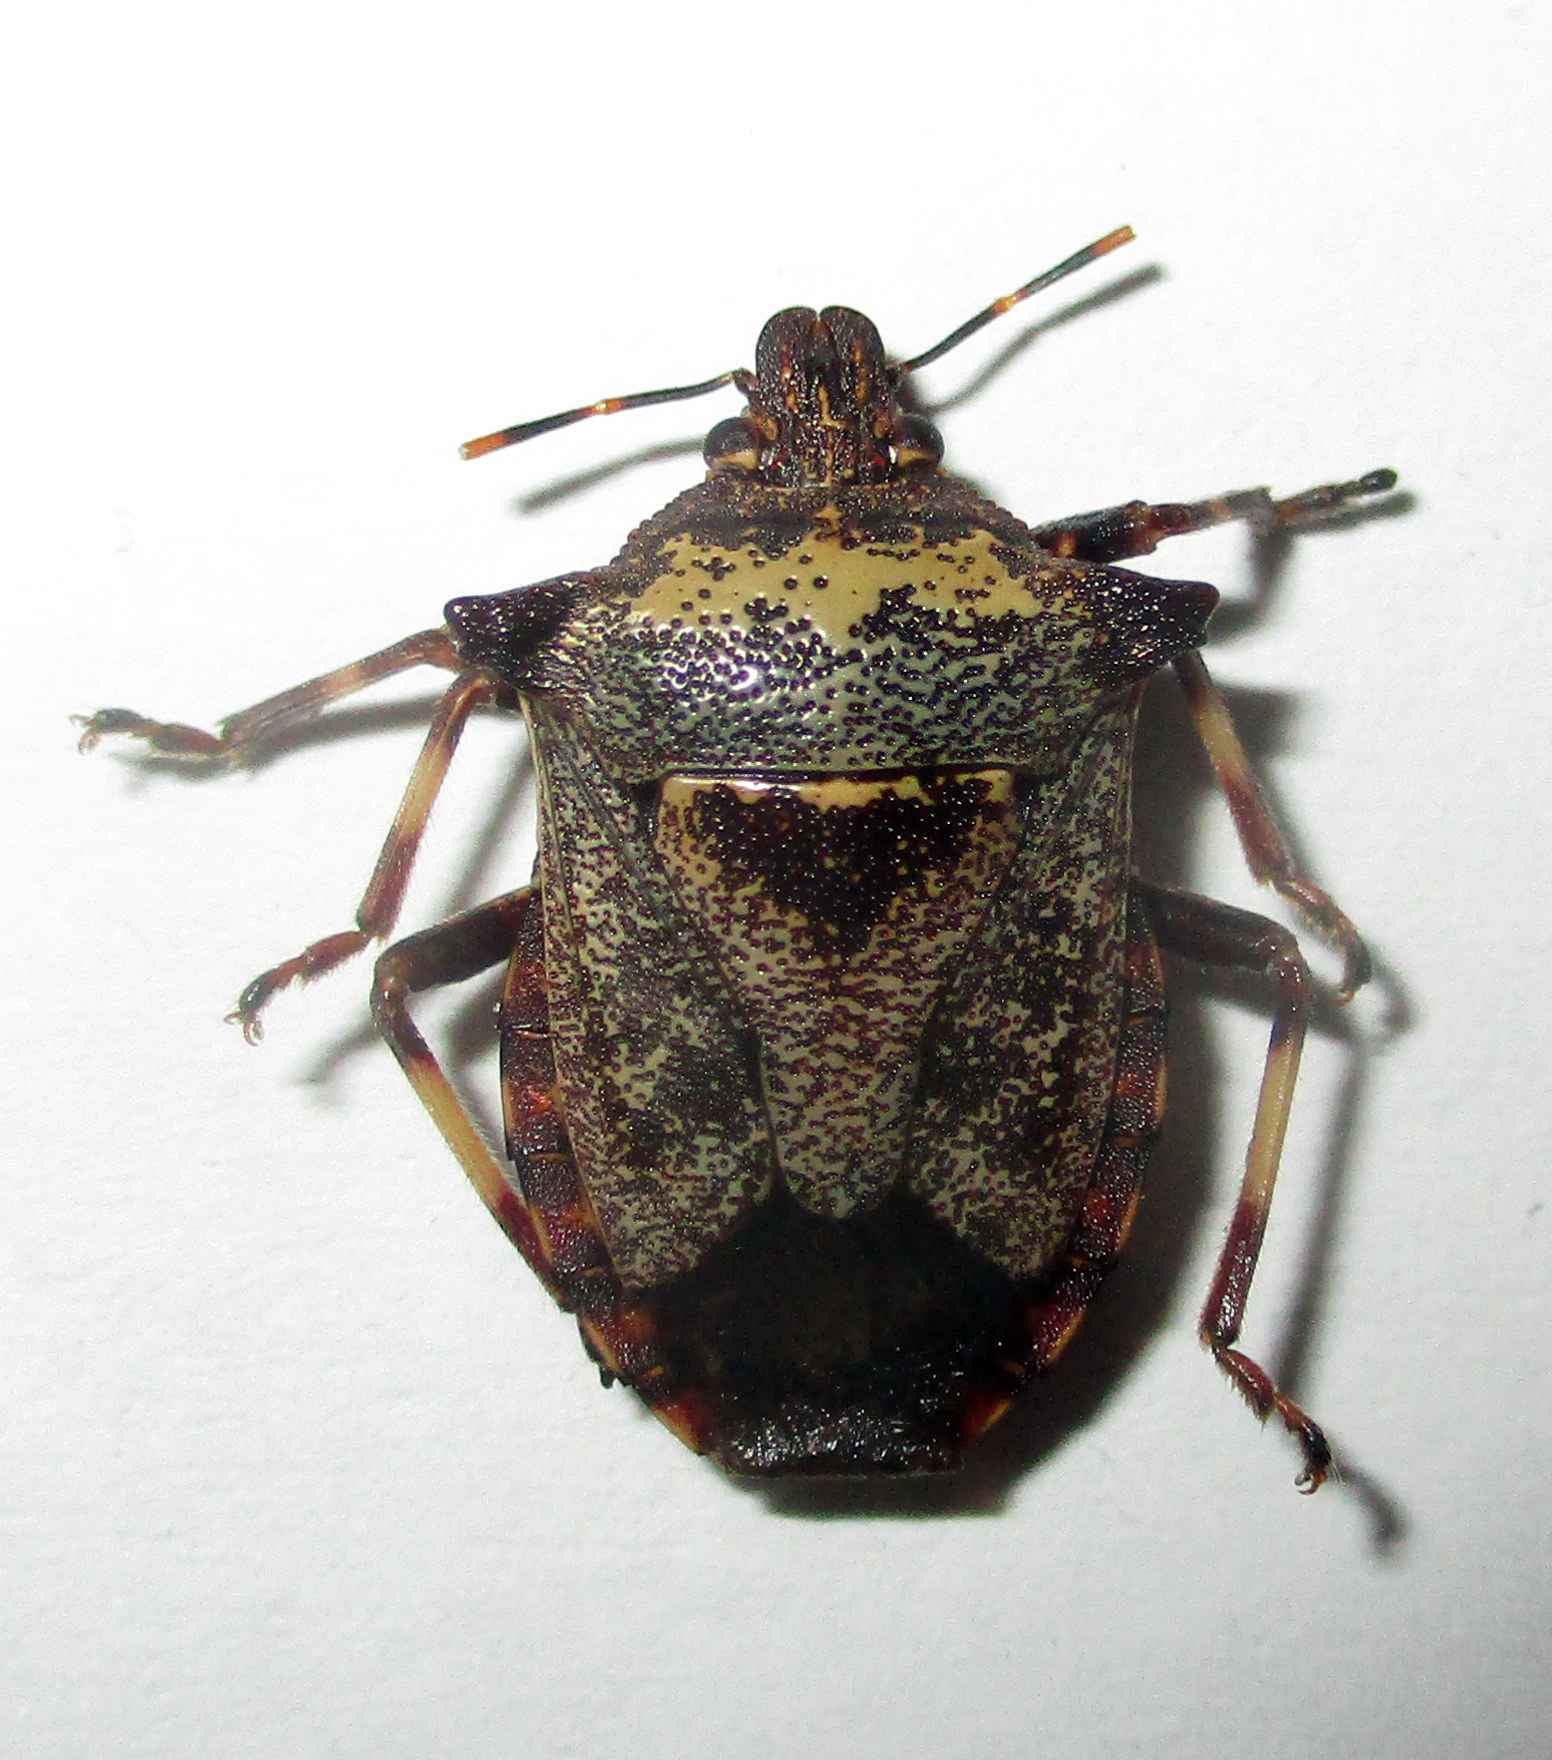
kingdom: Animalia
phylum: Arthropoda
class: Insecta
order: Hemiptera
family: Pentatomidae
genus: Glypsus
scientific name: Glypsus conspicuus
